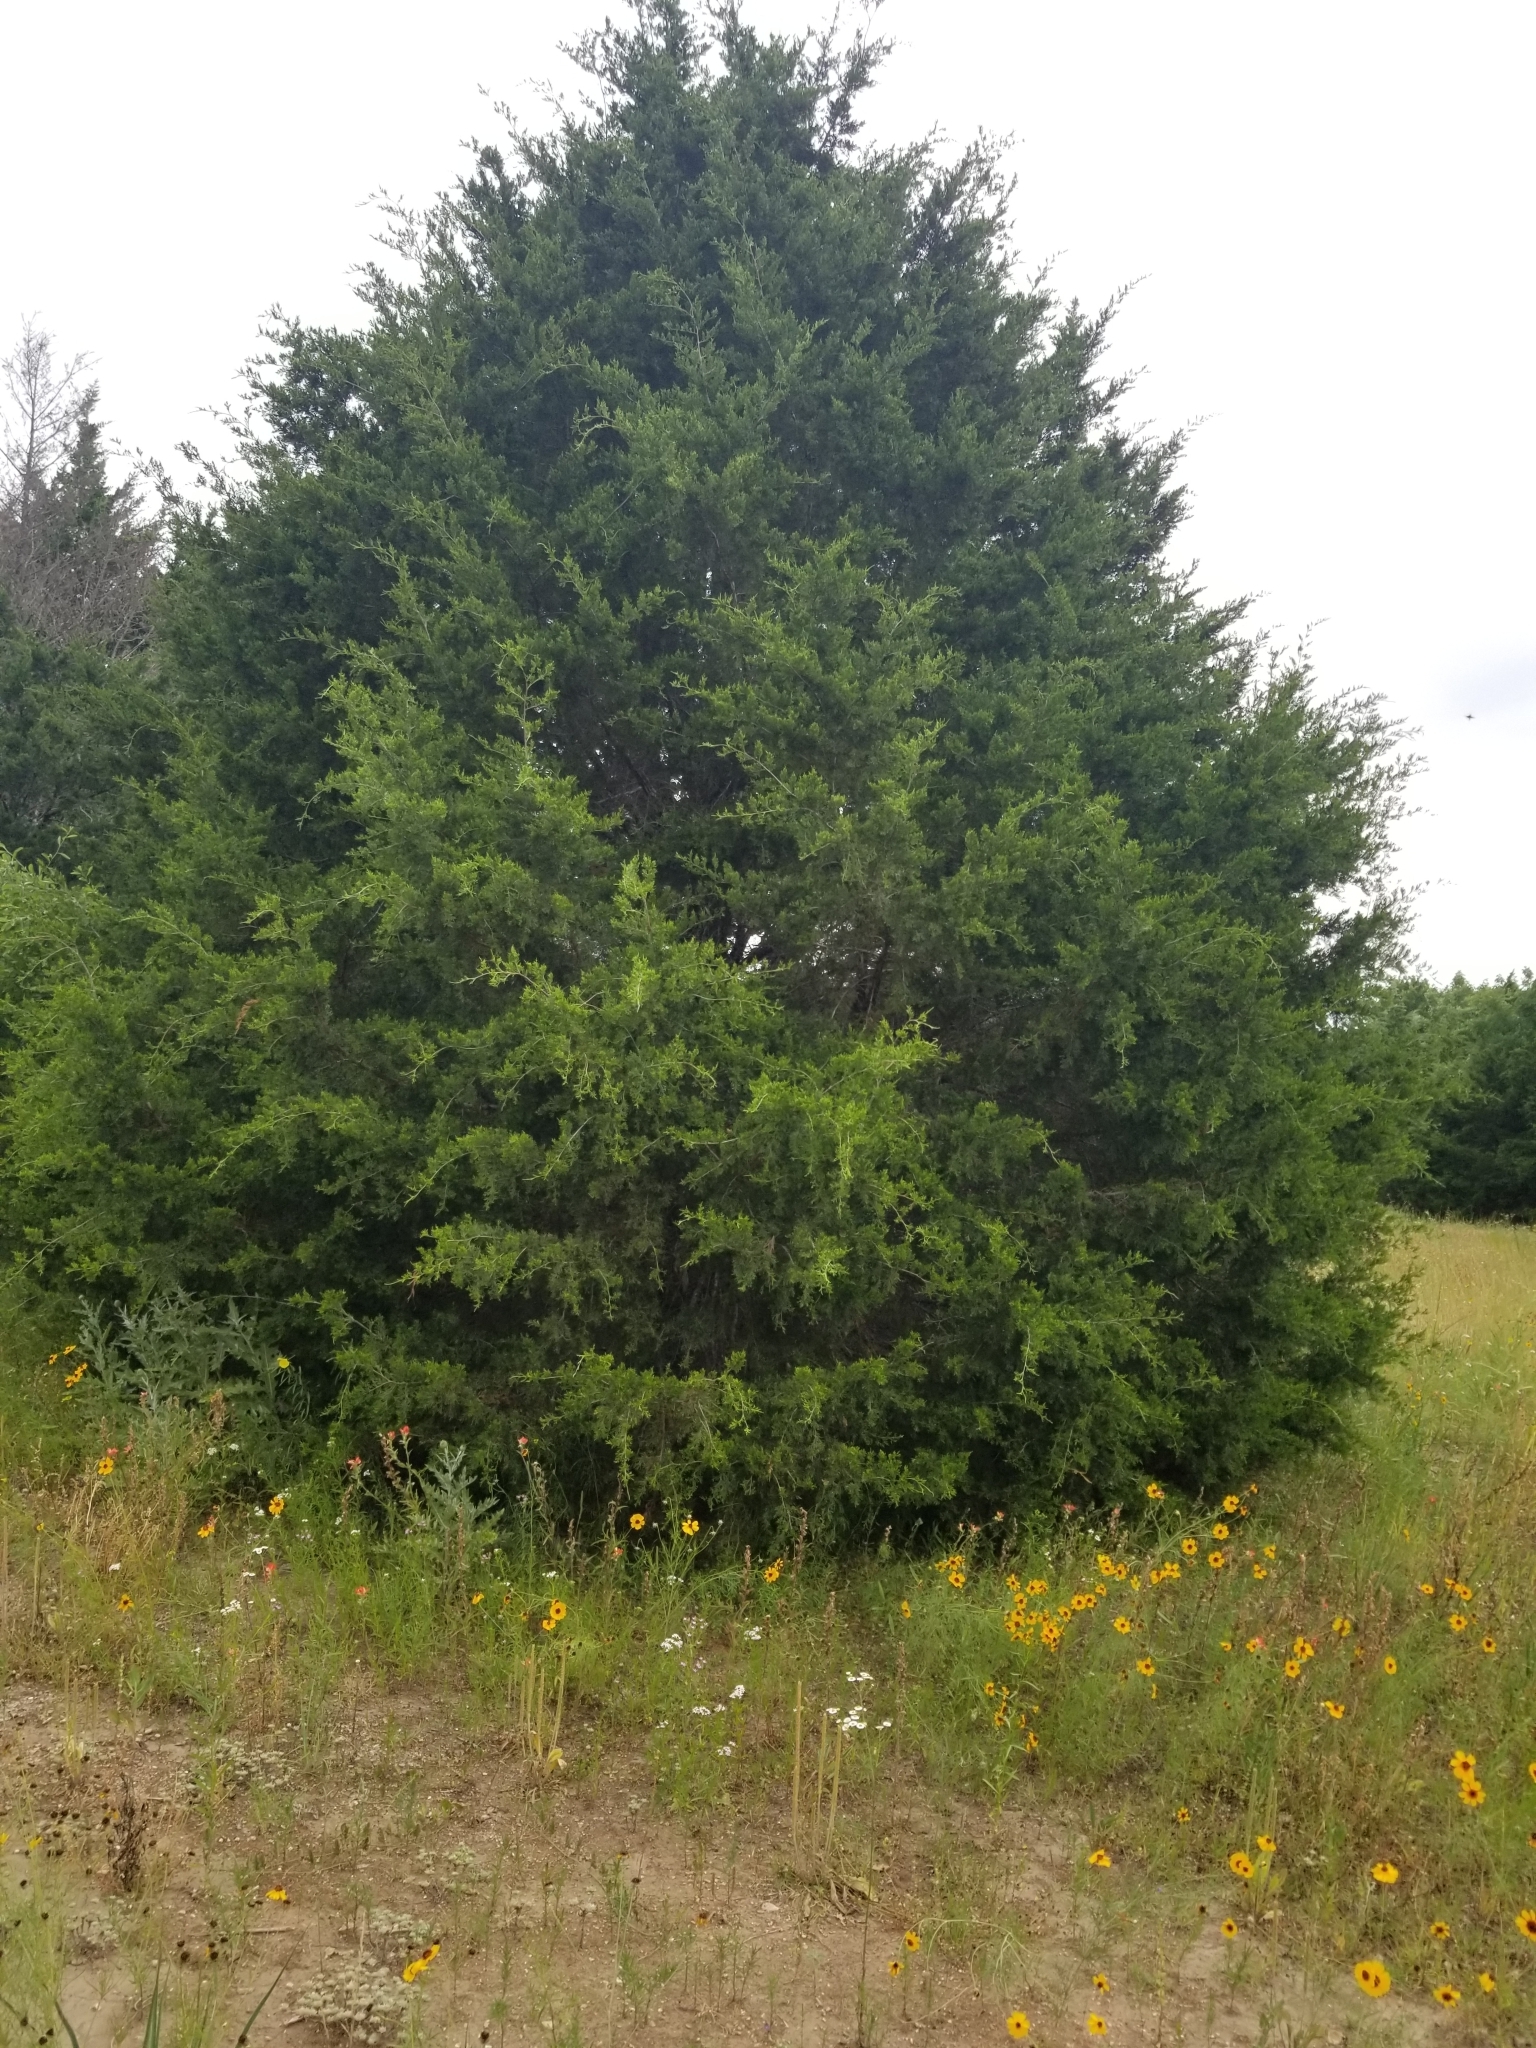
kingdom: Plantae
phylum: Tracheophyta
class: Pinopsida
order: Pinales
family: Cupressaceae
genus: Juniperus
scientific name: Juniperus ashei
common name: Mexican juniper
